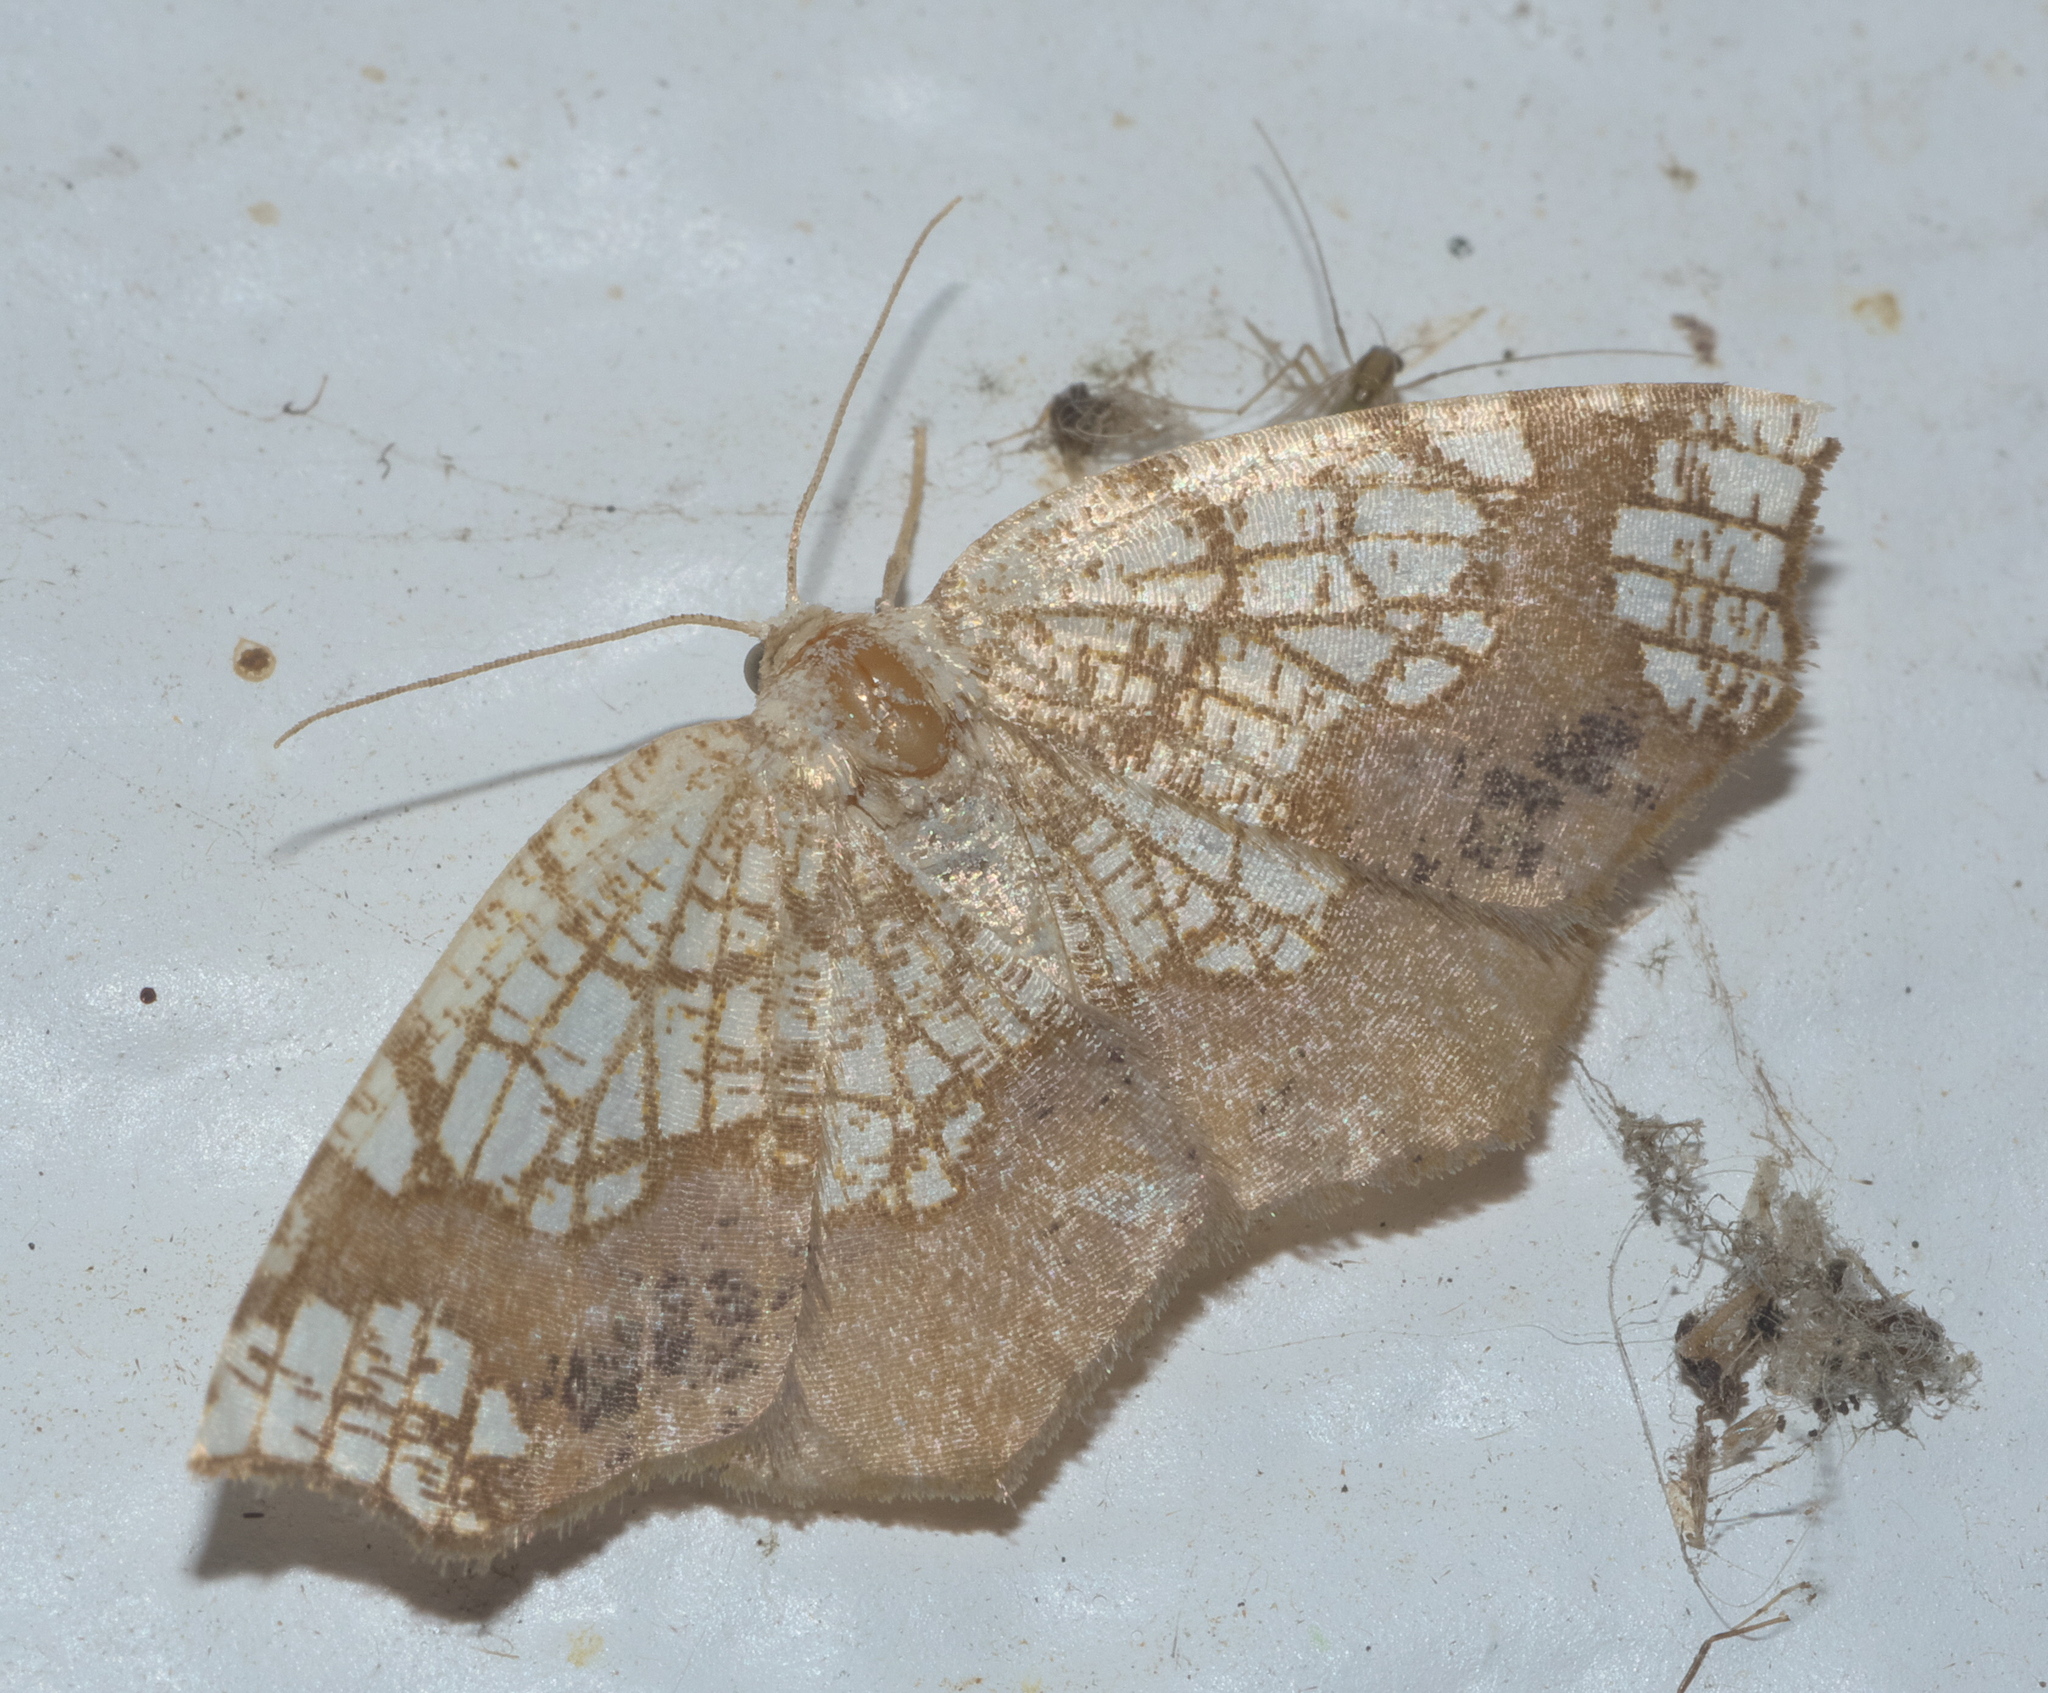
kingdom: Animalia
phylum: Arthropoda
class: Insecta
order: Lepidoptera
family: Geometridae
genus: Nematocampa
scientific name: Nematocampa resistaria
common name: Horned spanworm moth
